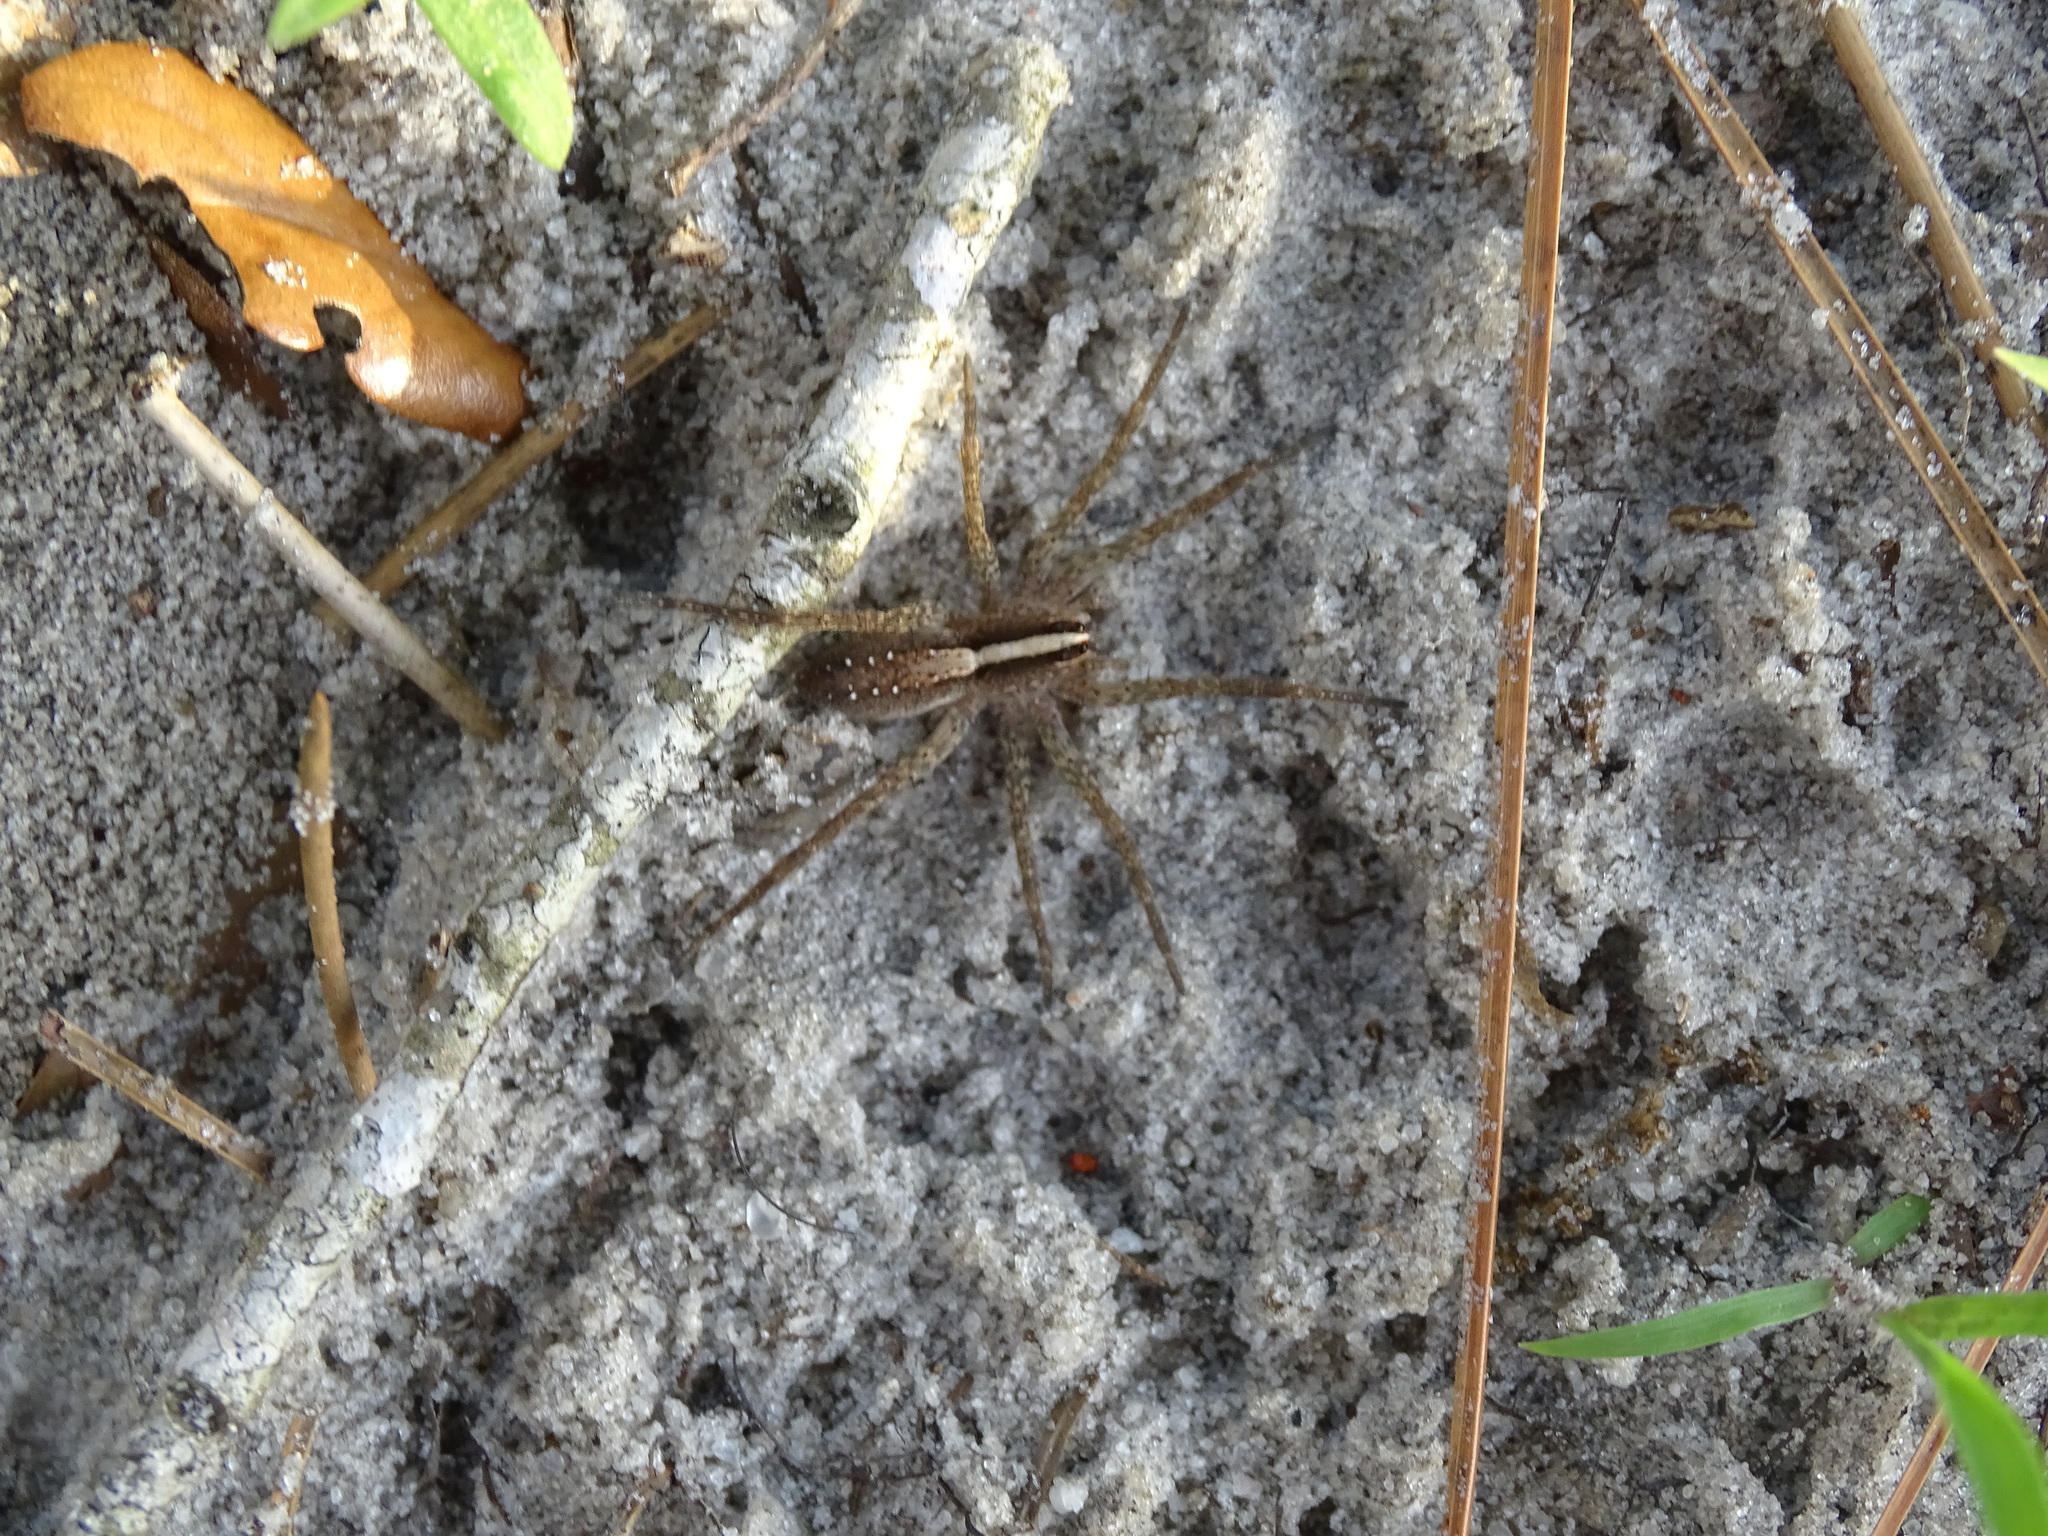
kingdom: Animalia
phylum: Arthropoda
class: Arachnida
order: Araneae
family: Lycosidae
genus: Rabidosa
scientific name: Rabidosa hentzi
